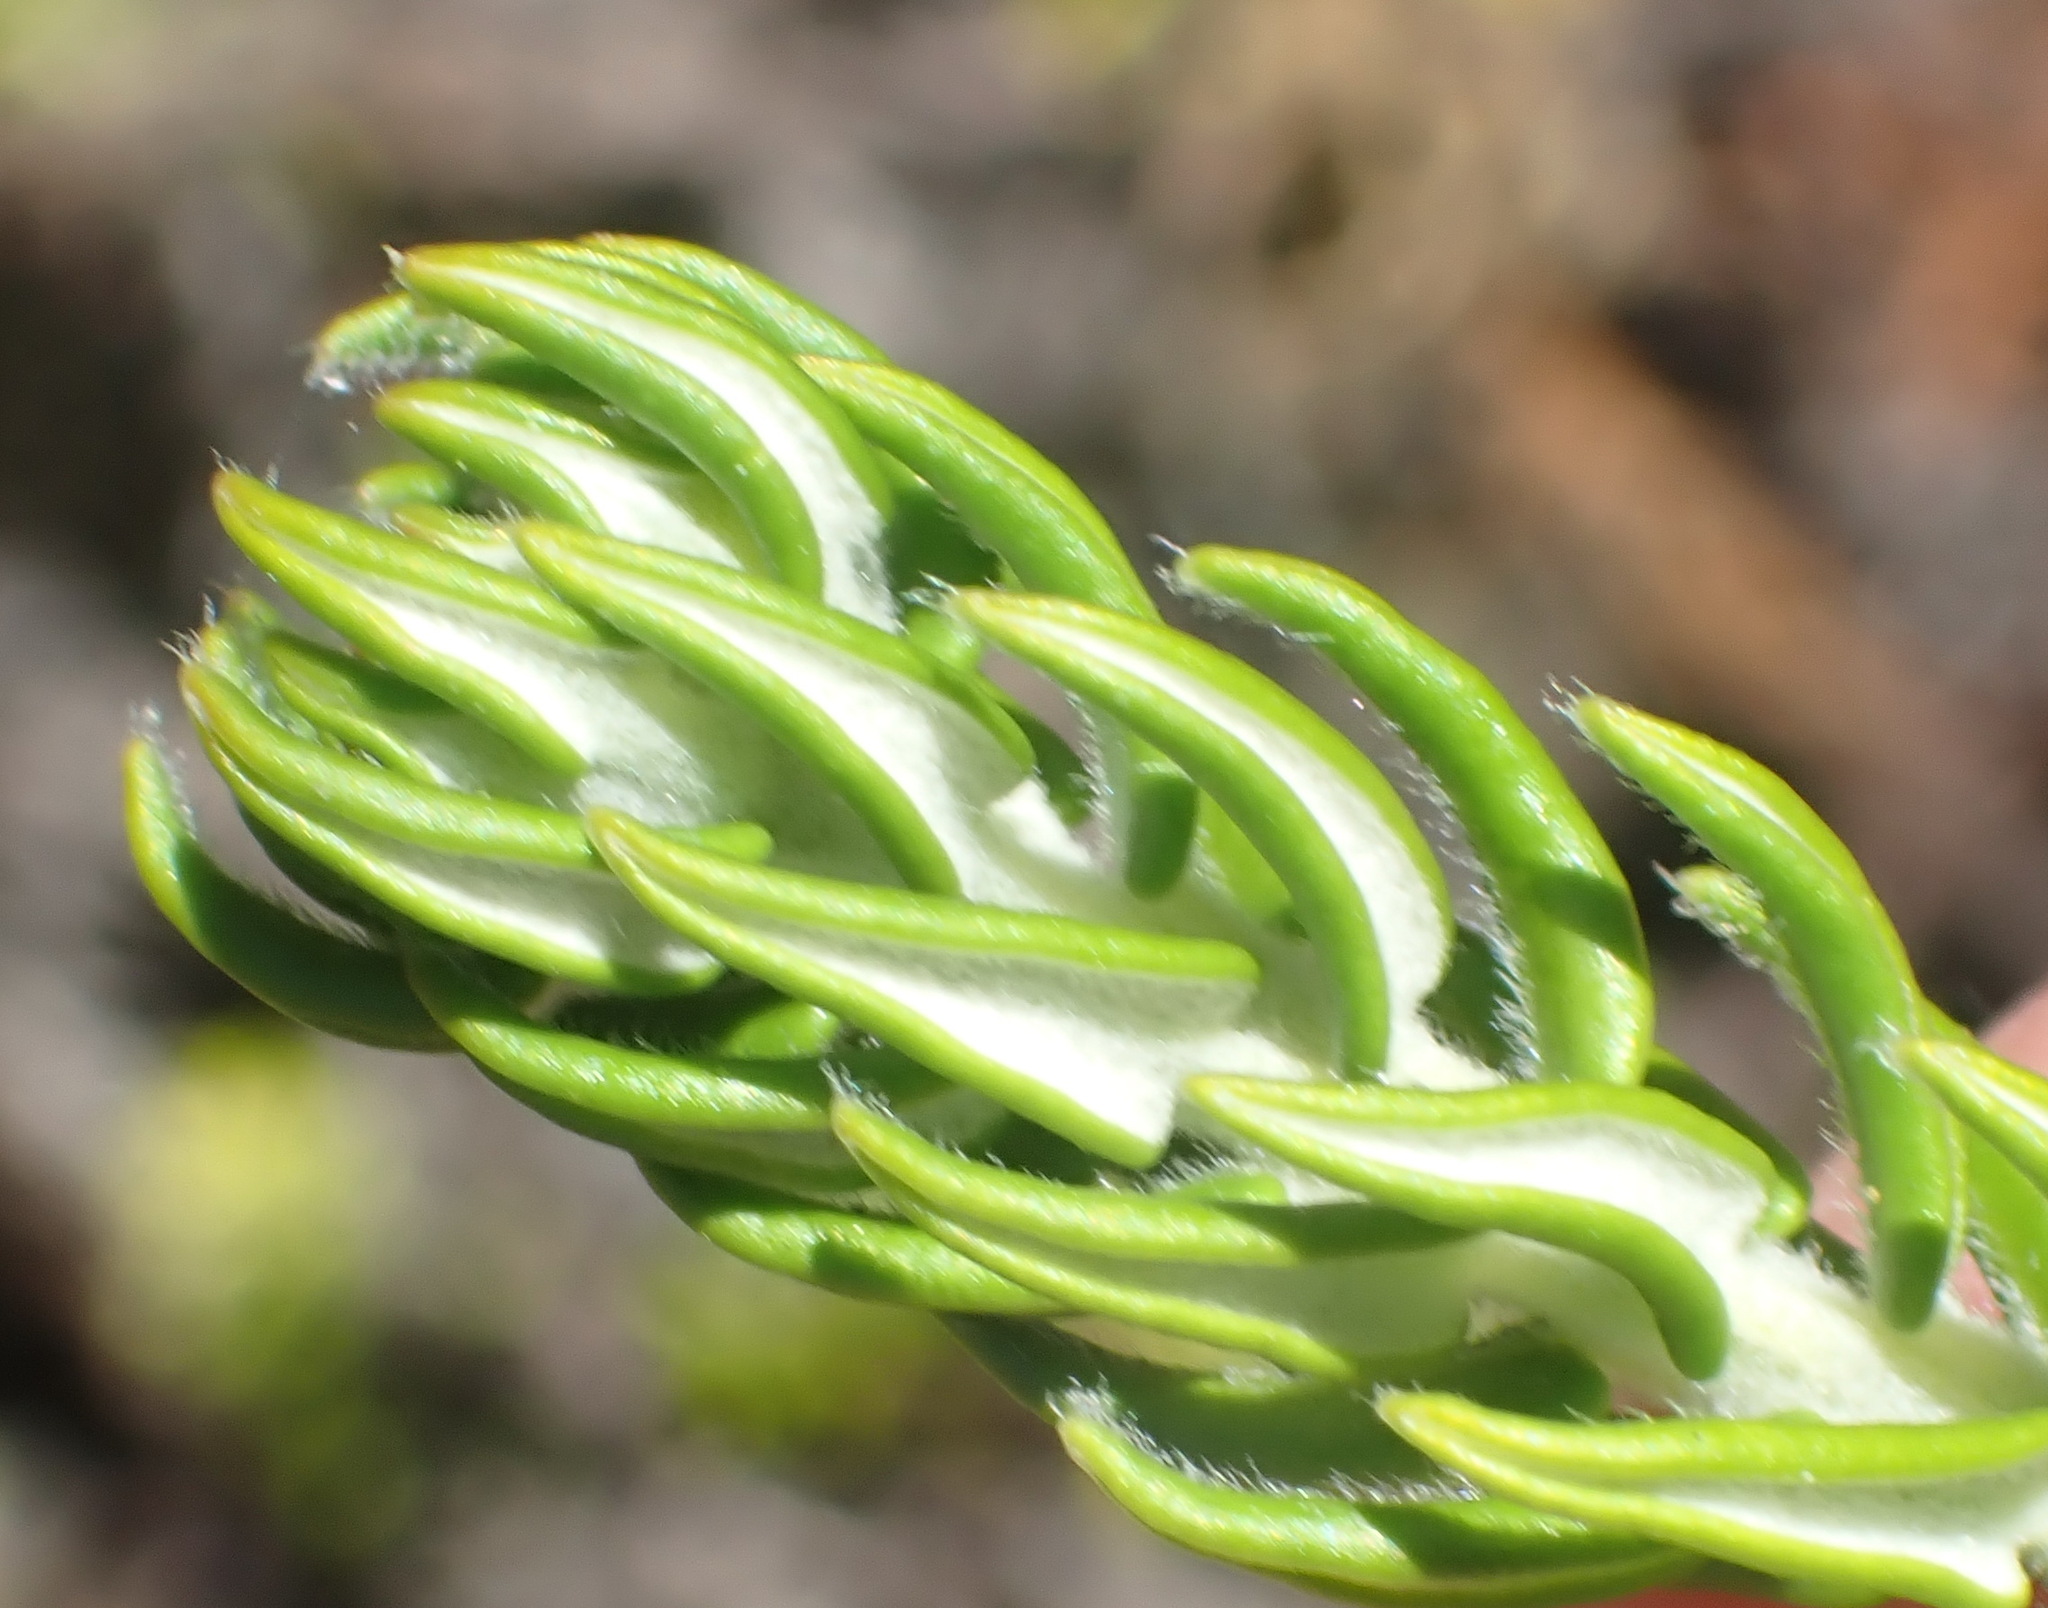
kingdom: Plantae
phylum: Tracheophyta
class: Magnoliopsida
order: Rosales
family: Rhamnaceae
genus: Phylica
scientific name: Phylica litoralis
